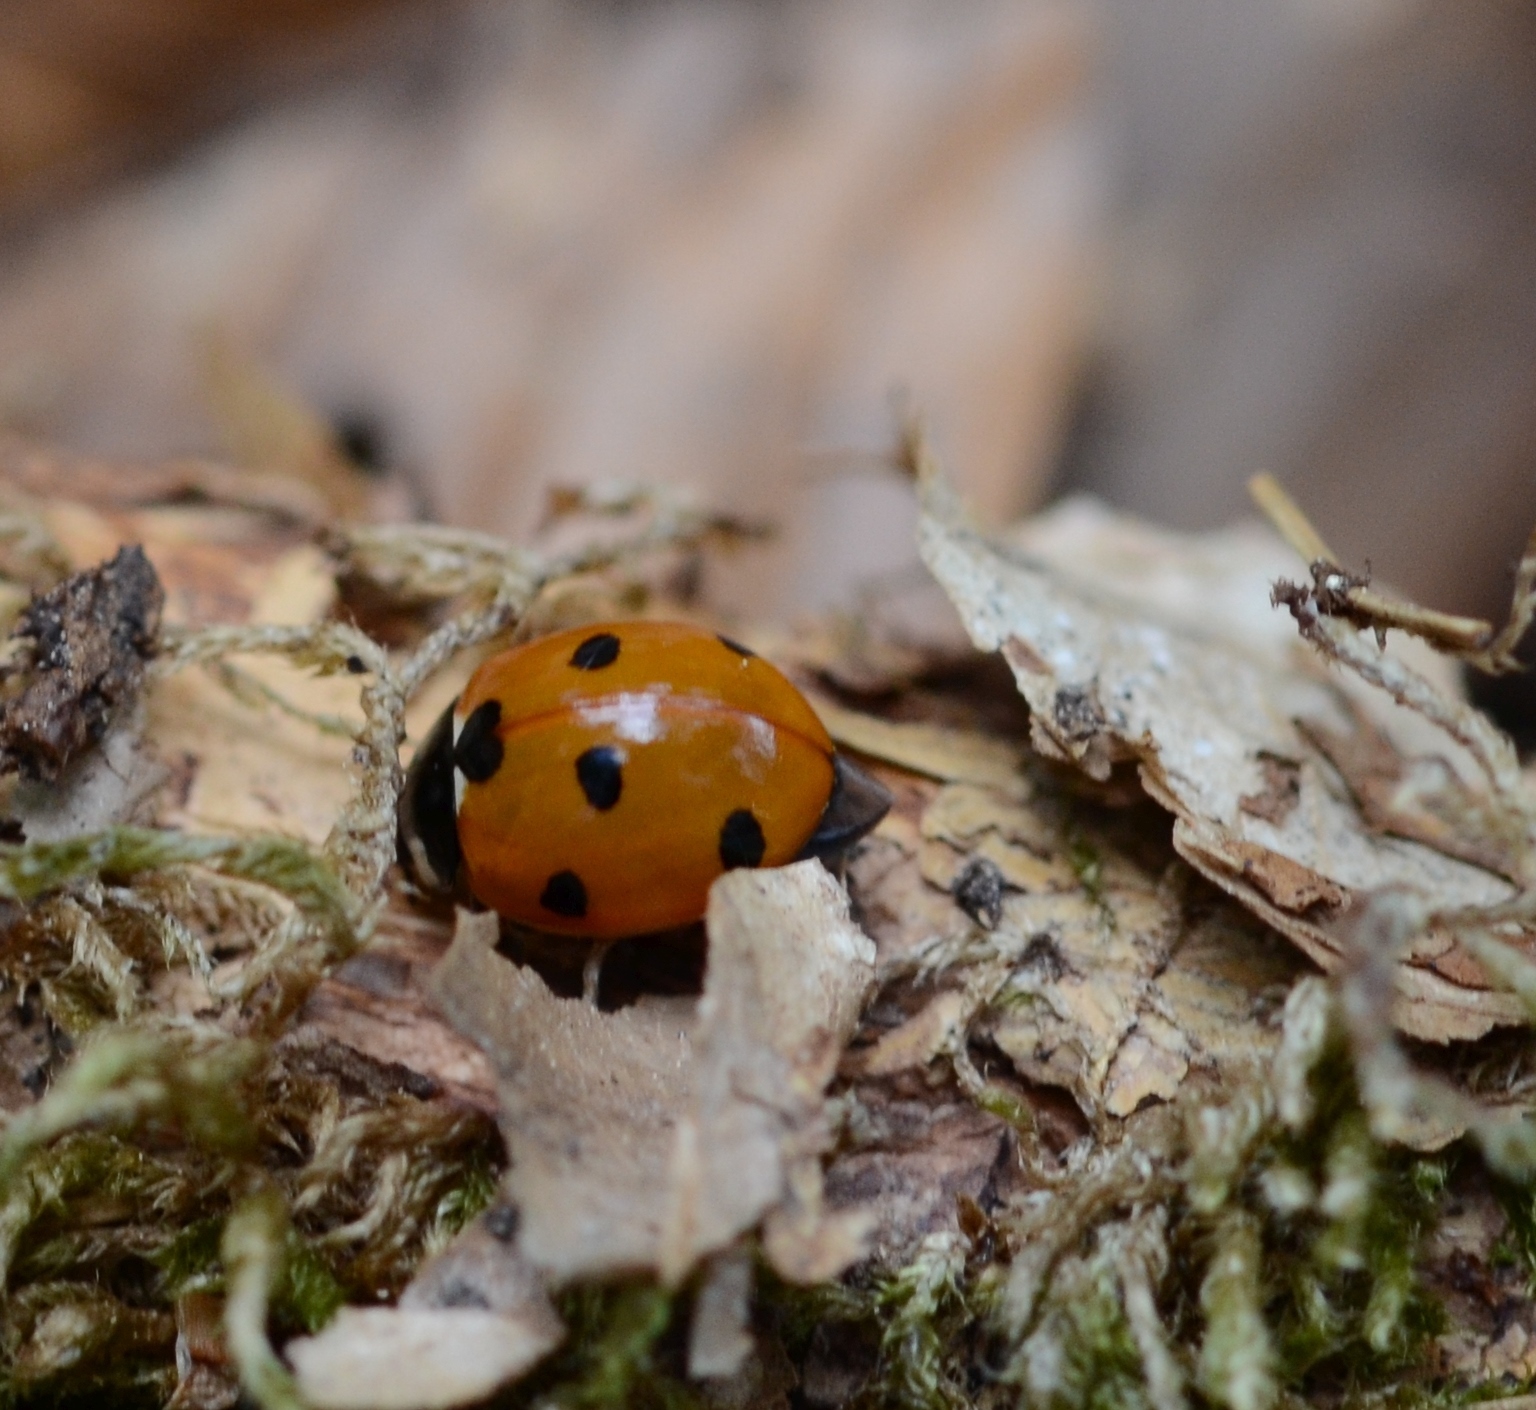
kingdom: Animalia
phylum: Arthropoda
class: Insecta
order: Coleoptera
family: Coccinellidae
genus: Coccinella
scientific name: Coccinella septempunctata
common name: Sevenspotted lady beetle
